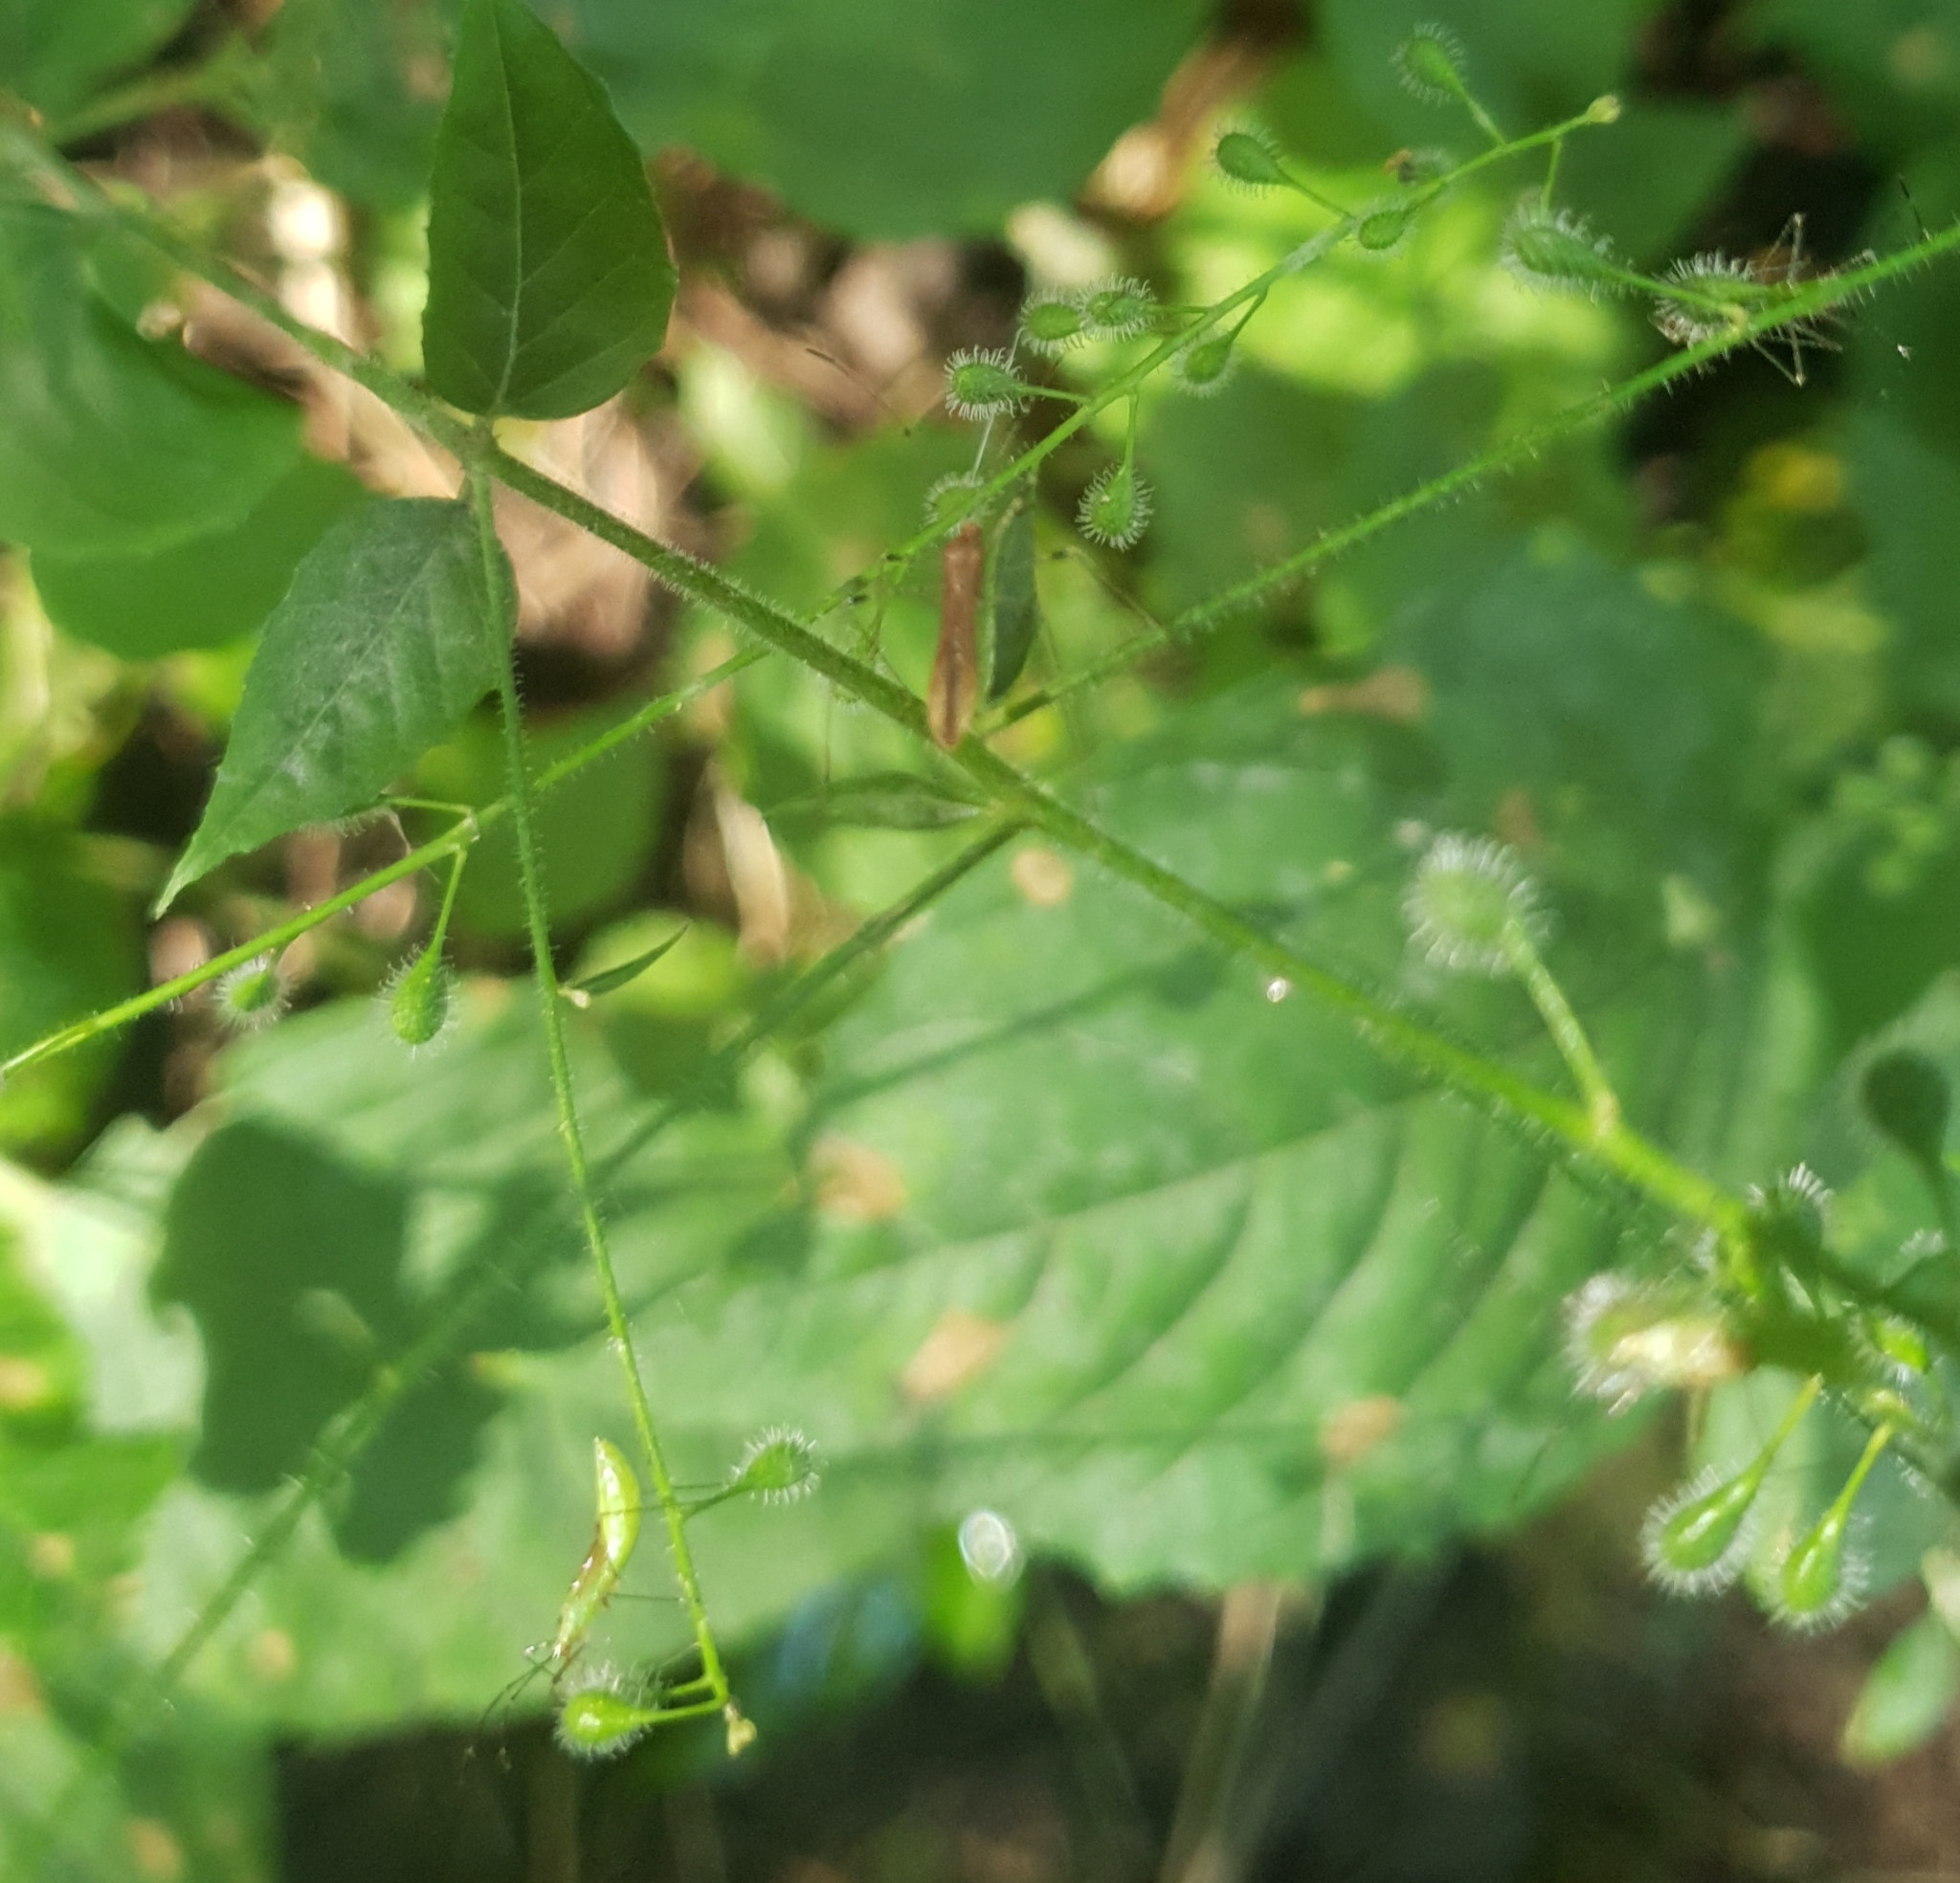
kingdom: Animalia
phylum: Arthropoda
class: Insecta
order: Hemiptera
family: Berytidae
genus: Metatropis
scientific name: Metatropis rufescens
